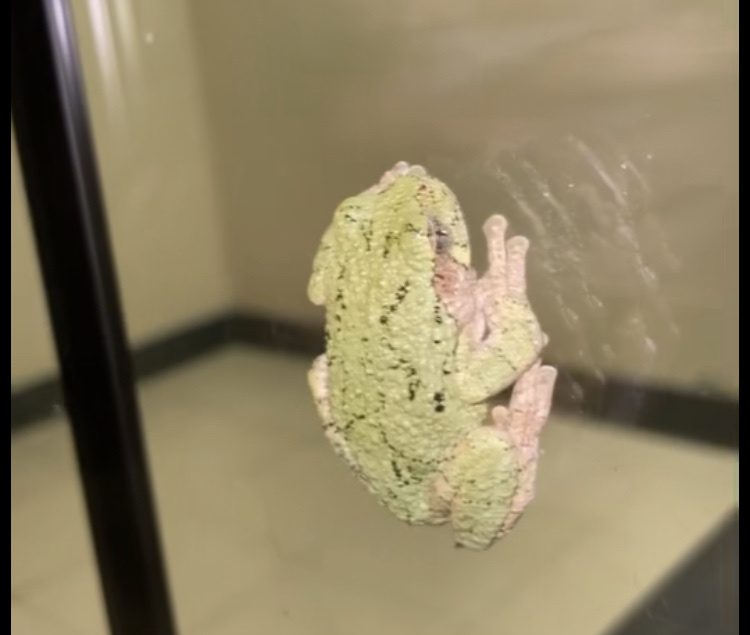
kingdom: Animalia
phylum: Chordata
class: Amphibia
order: Anura
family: Hylidae
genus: Dryophytes
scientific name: Dryophytes versicolor
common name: Gray treefrog
